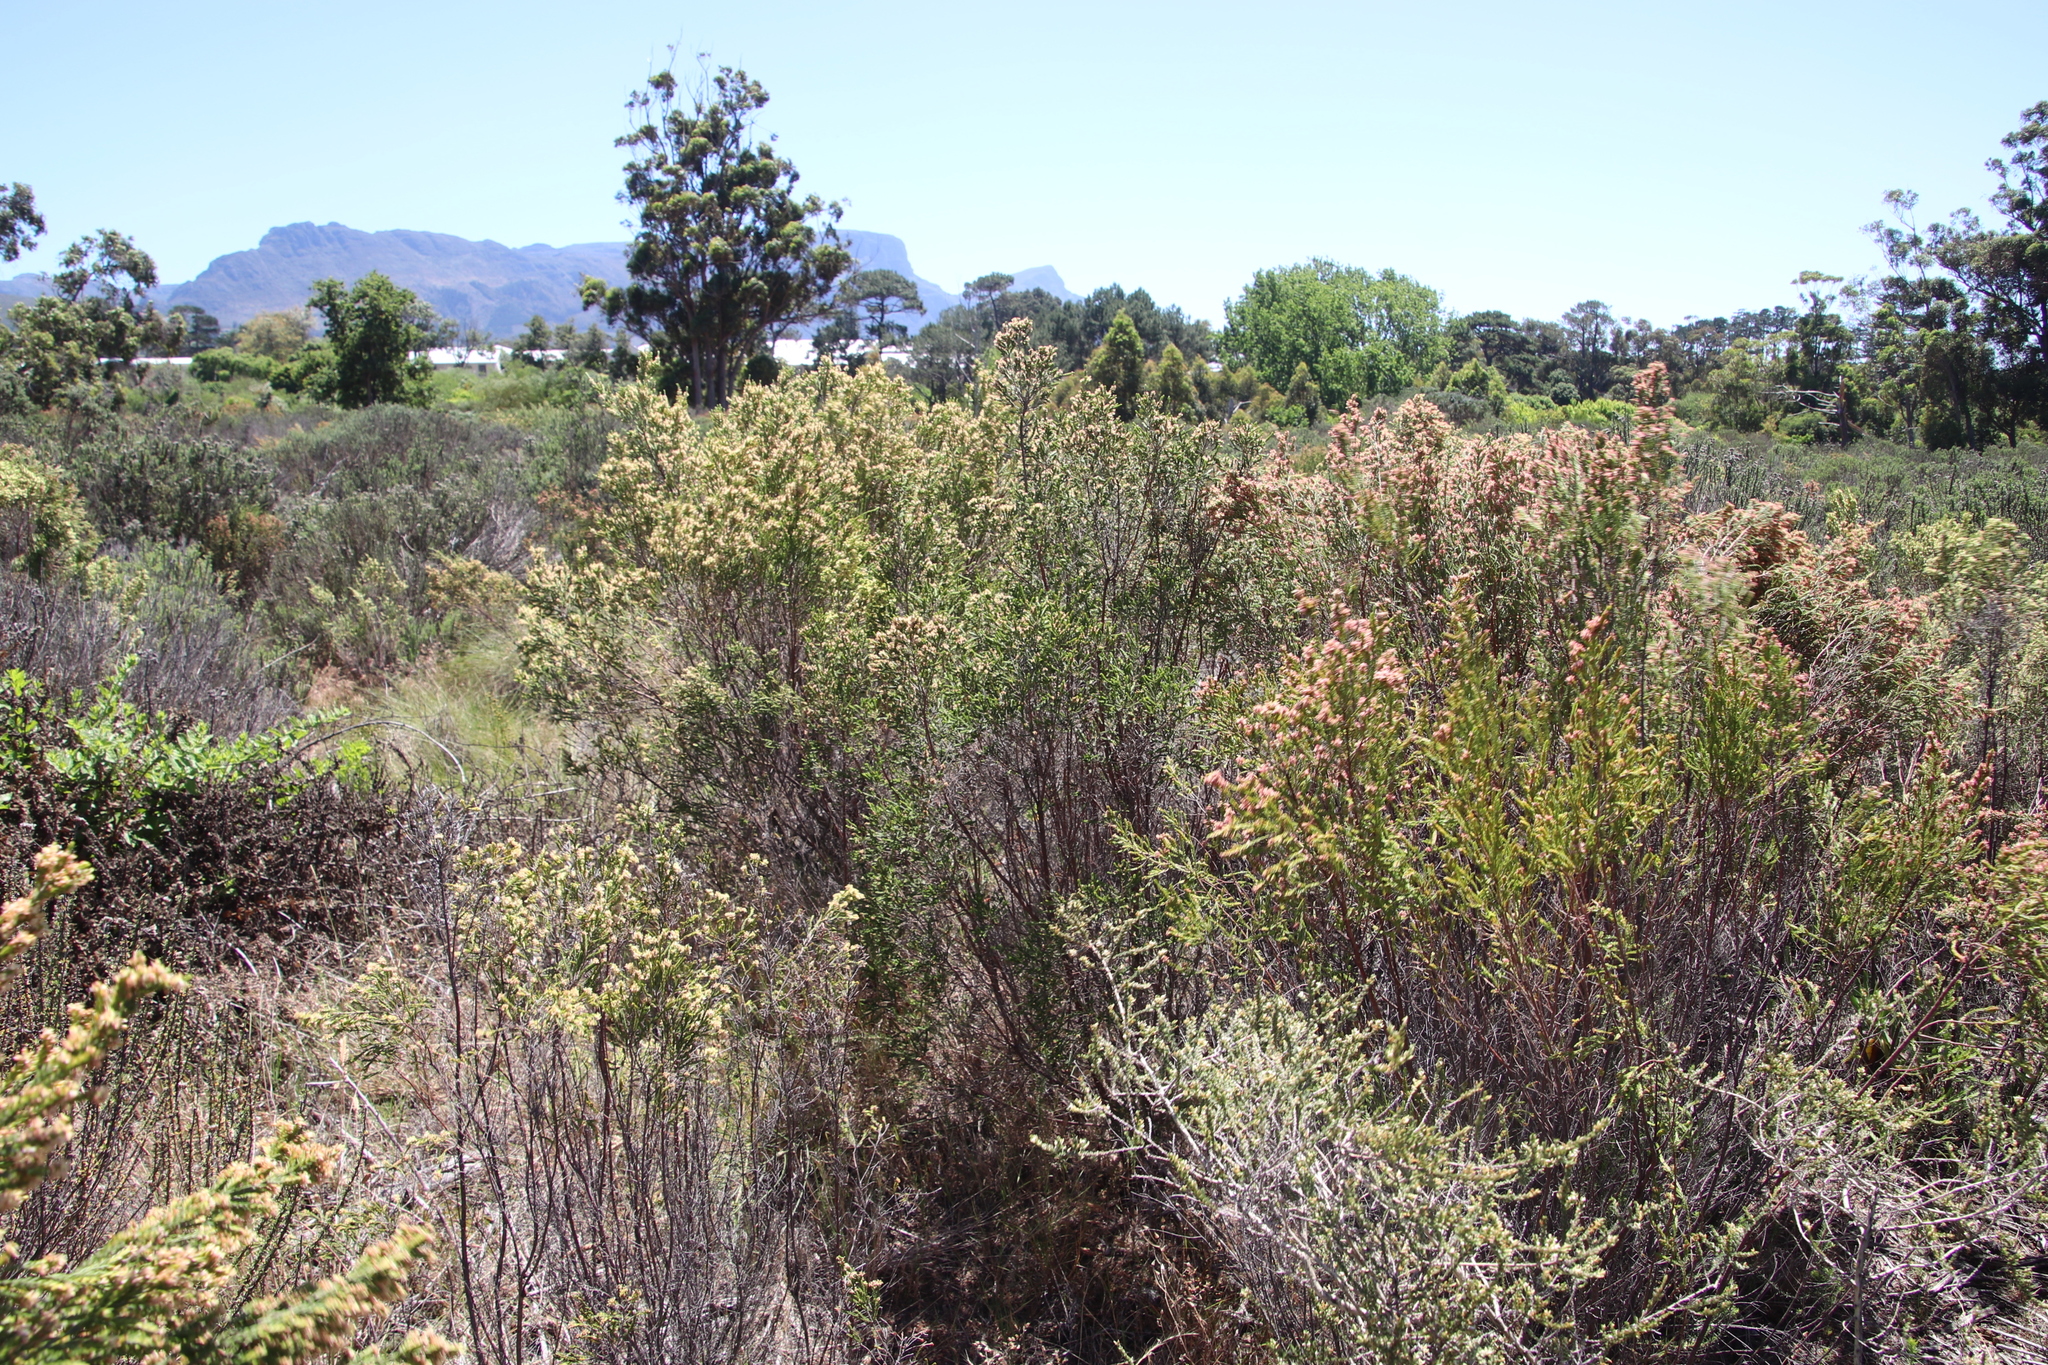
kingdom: Plantae
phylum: Tracheophyta
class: Magnoliopsida
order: Malvales
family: Thymelaeaceae
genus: Passerina
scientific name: Passerina corymbosa
